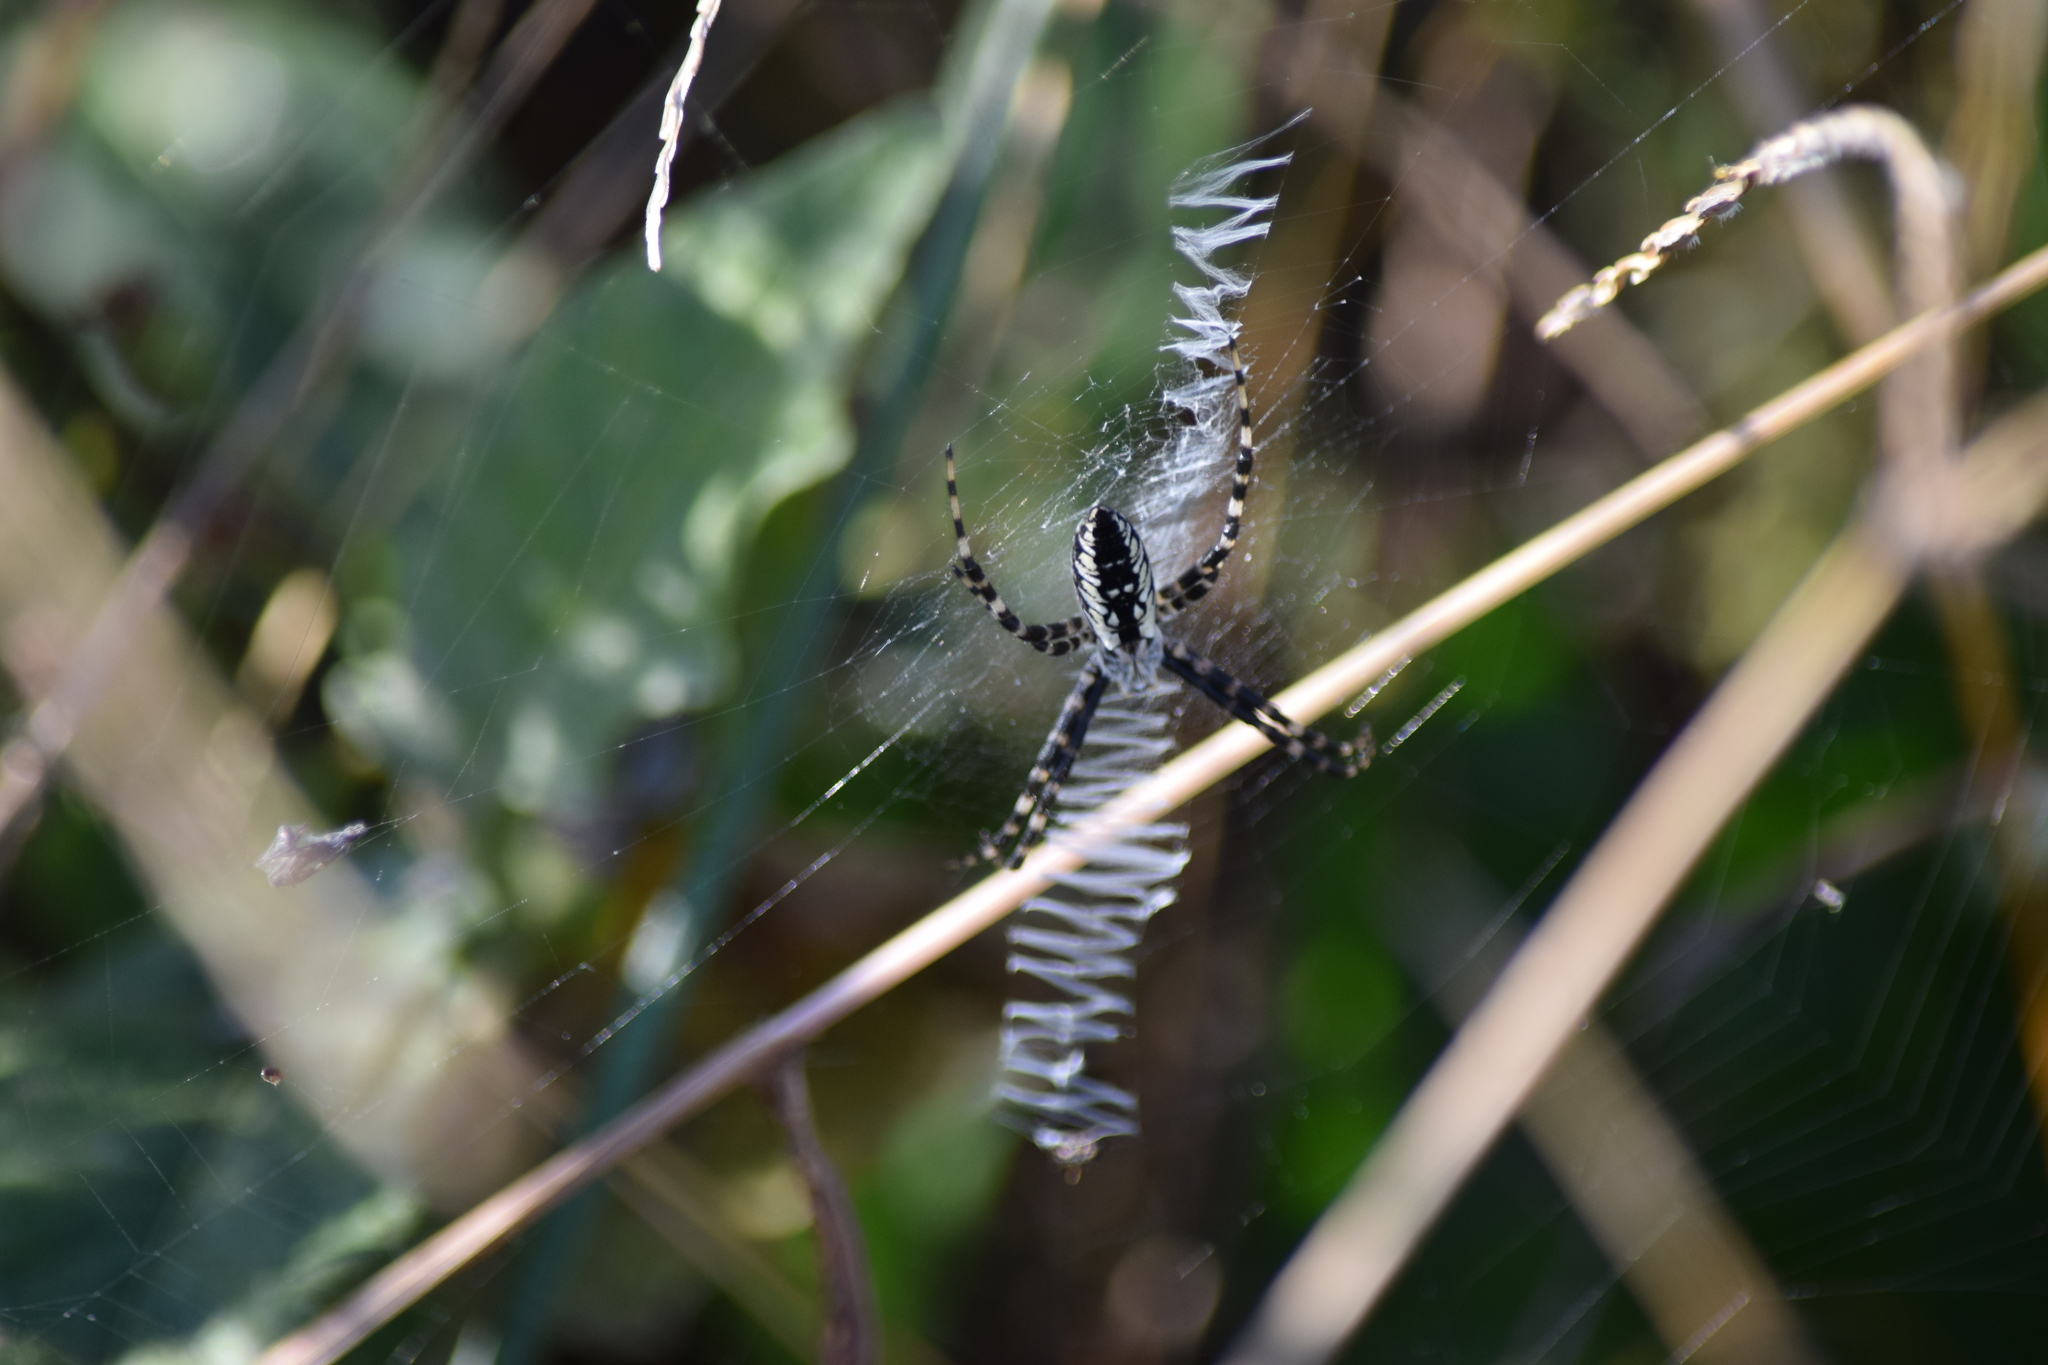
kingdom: Animalia
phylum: Arthropoda
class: Arachnida
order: Araneae
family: Araneidae
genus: Argiope
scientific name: Argiope aurantia
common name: Orb weavers
